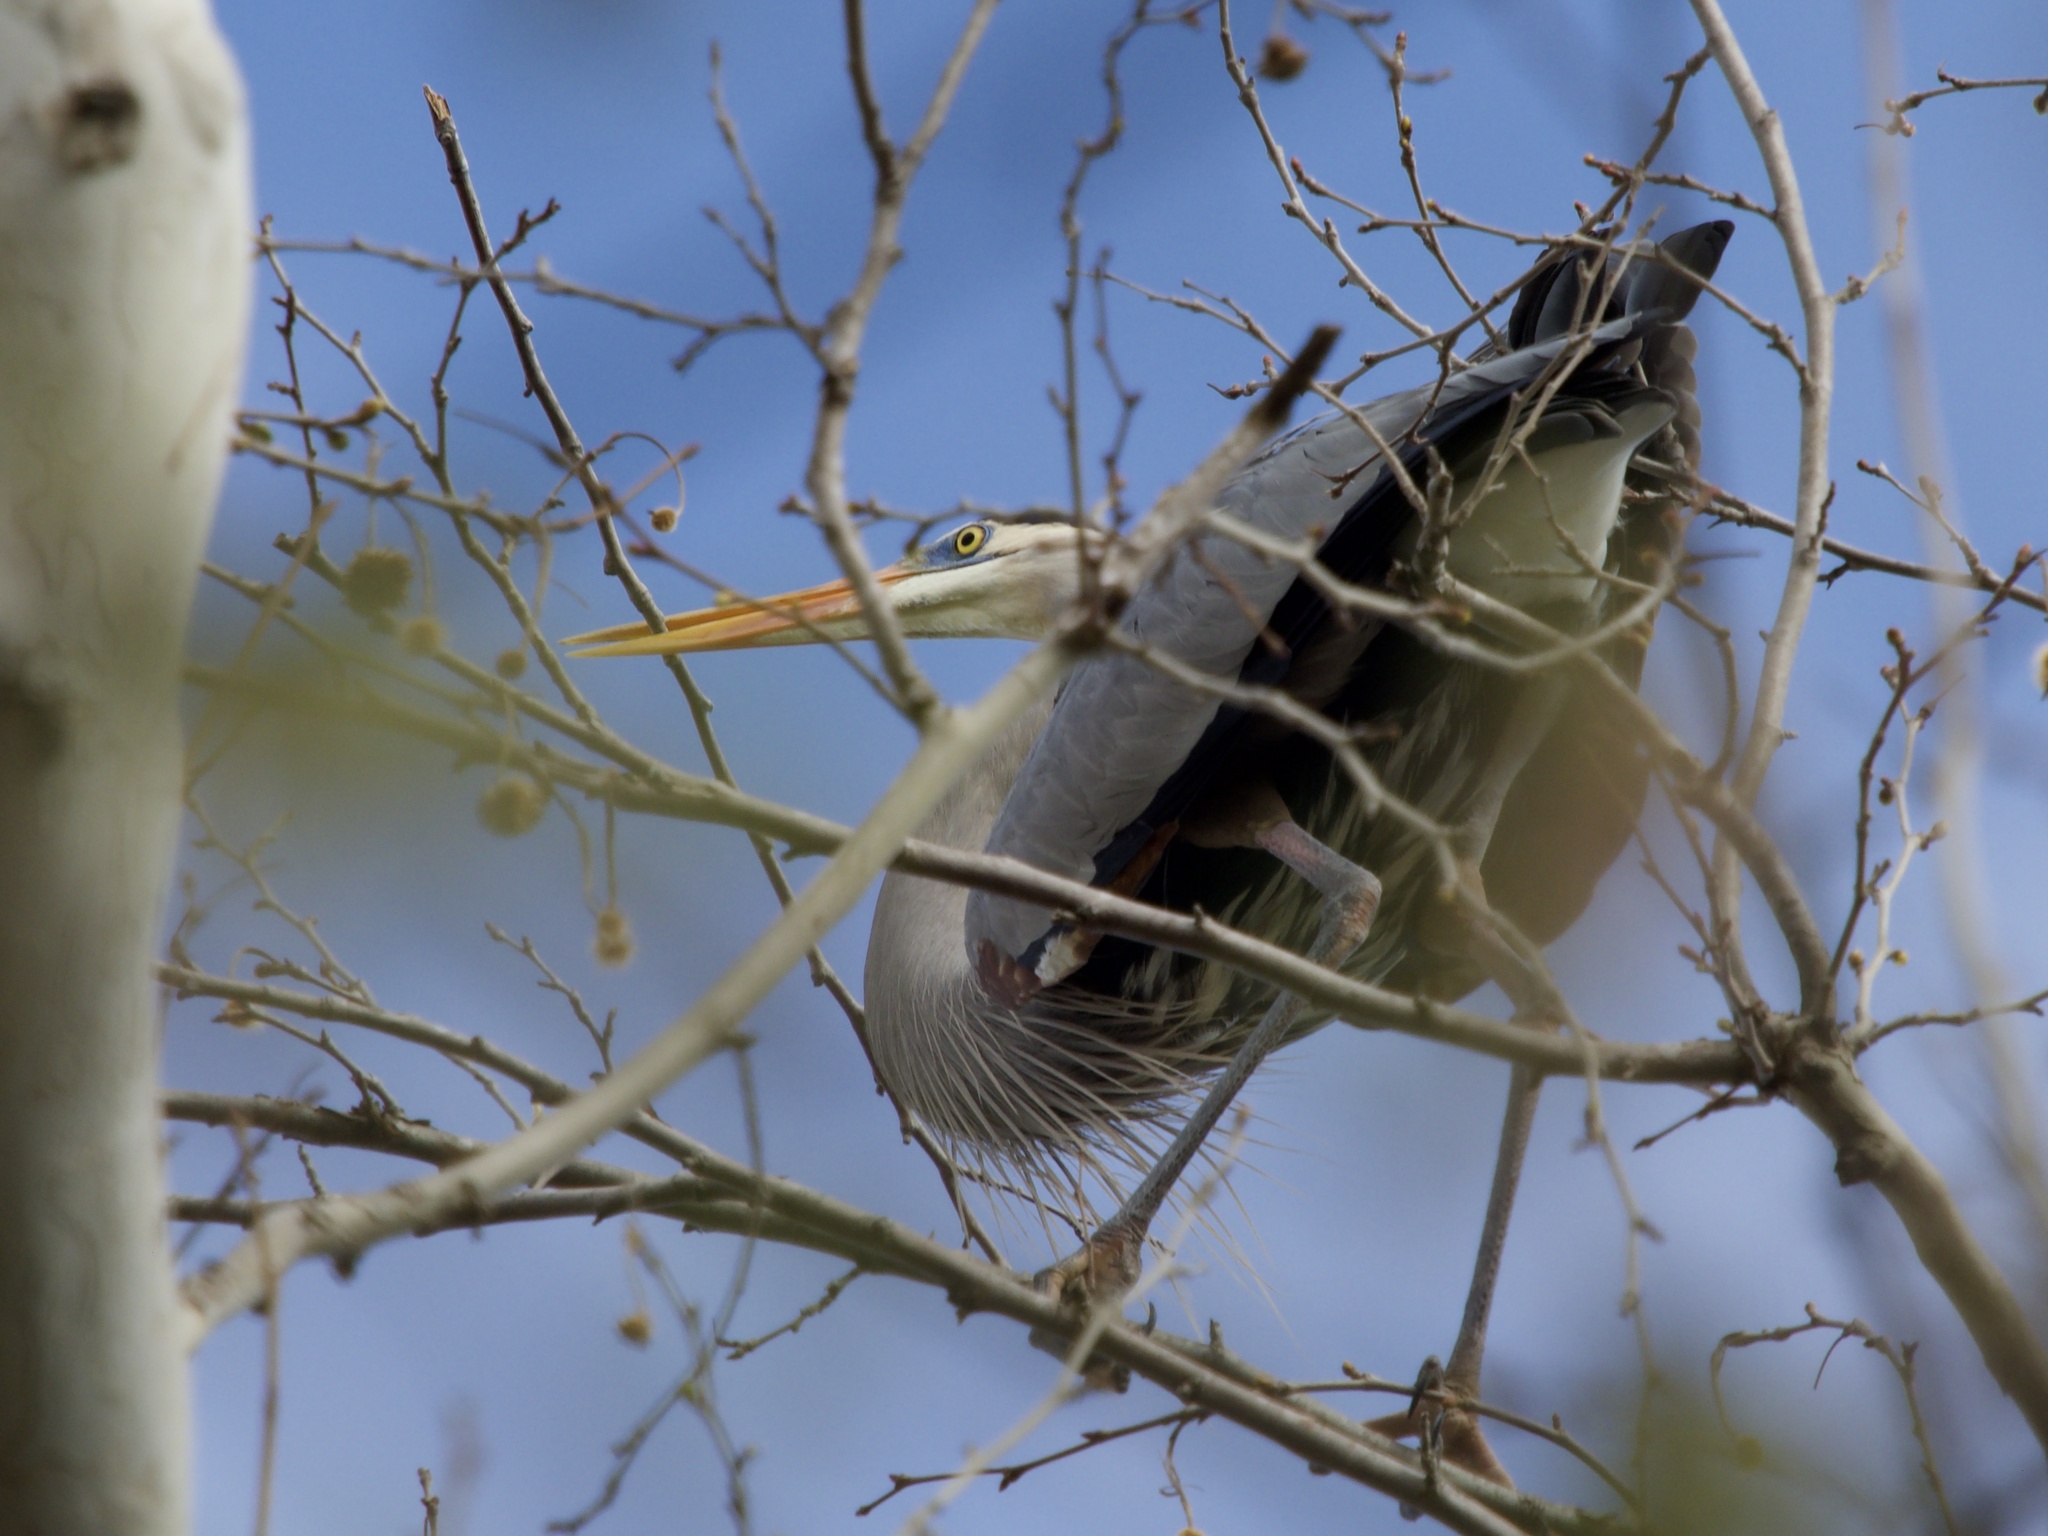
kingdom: Animalia
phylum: Chordata
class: Aves
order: Pelecaniformes
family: Ardeidae
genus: Ardea
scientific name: Ardea herodias
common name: Great blue heron
